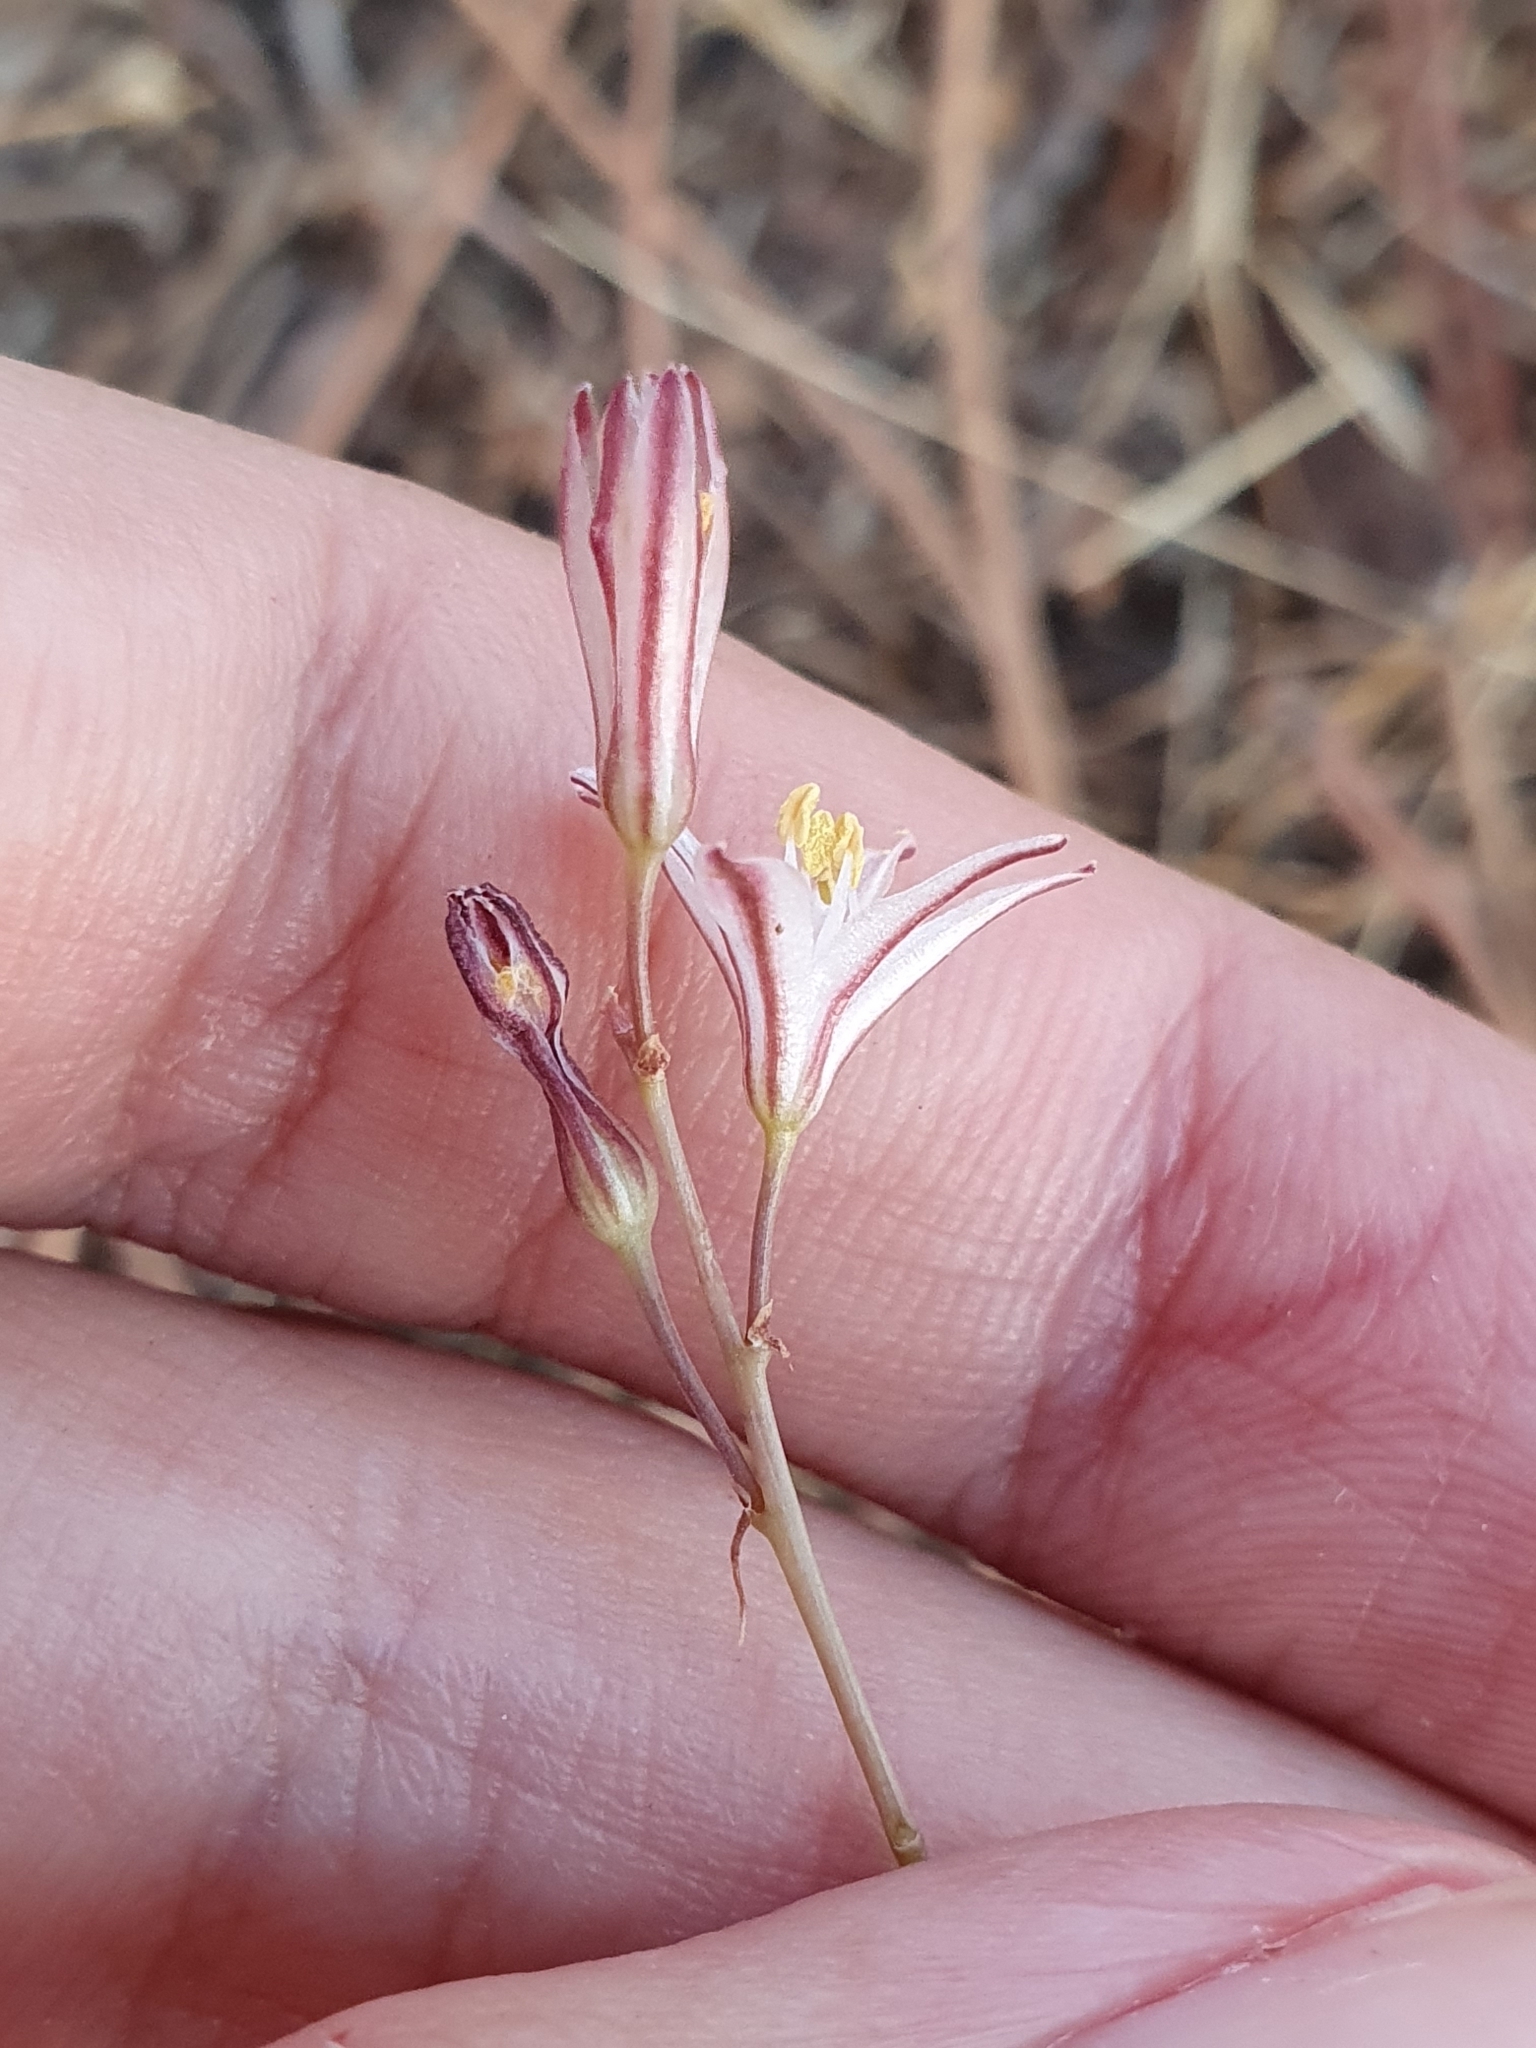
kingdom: Plantae
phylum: Tracheophyta
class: Liliopsida
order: Asparagales
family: Asparagaceae
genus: Drimia
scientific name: Drimia fugax
